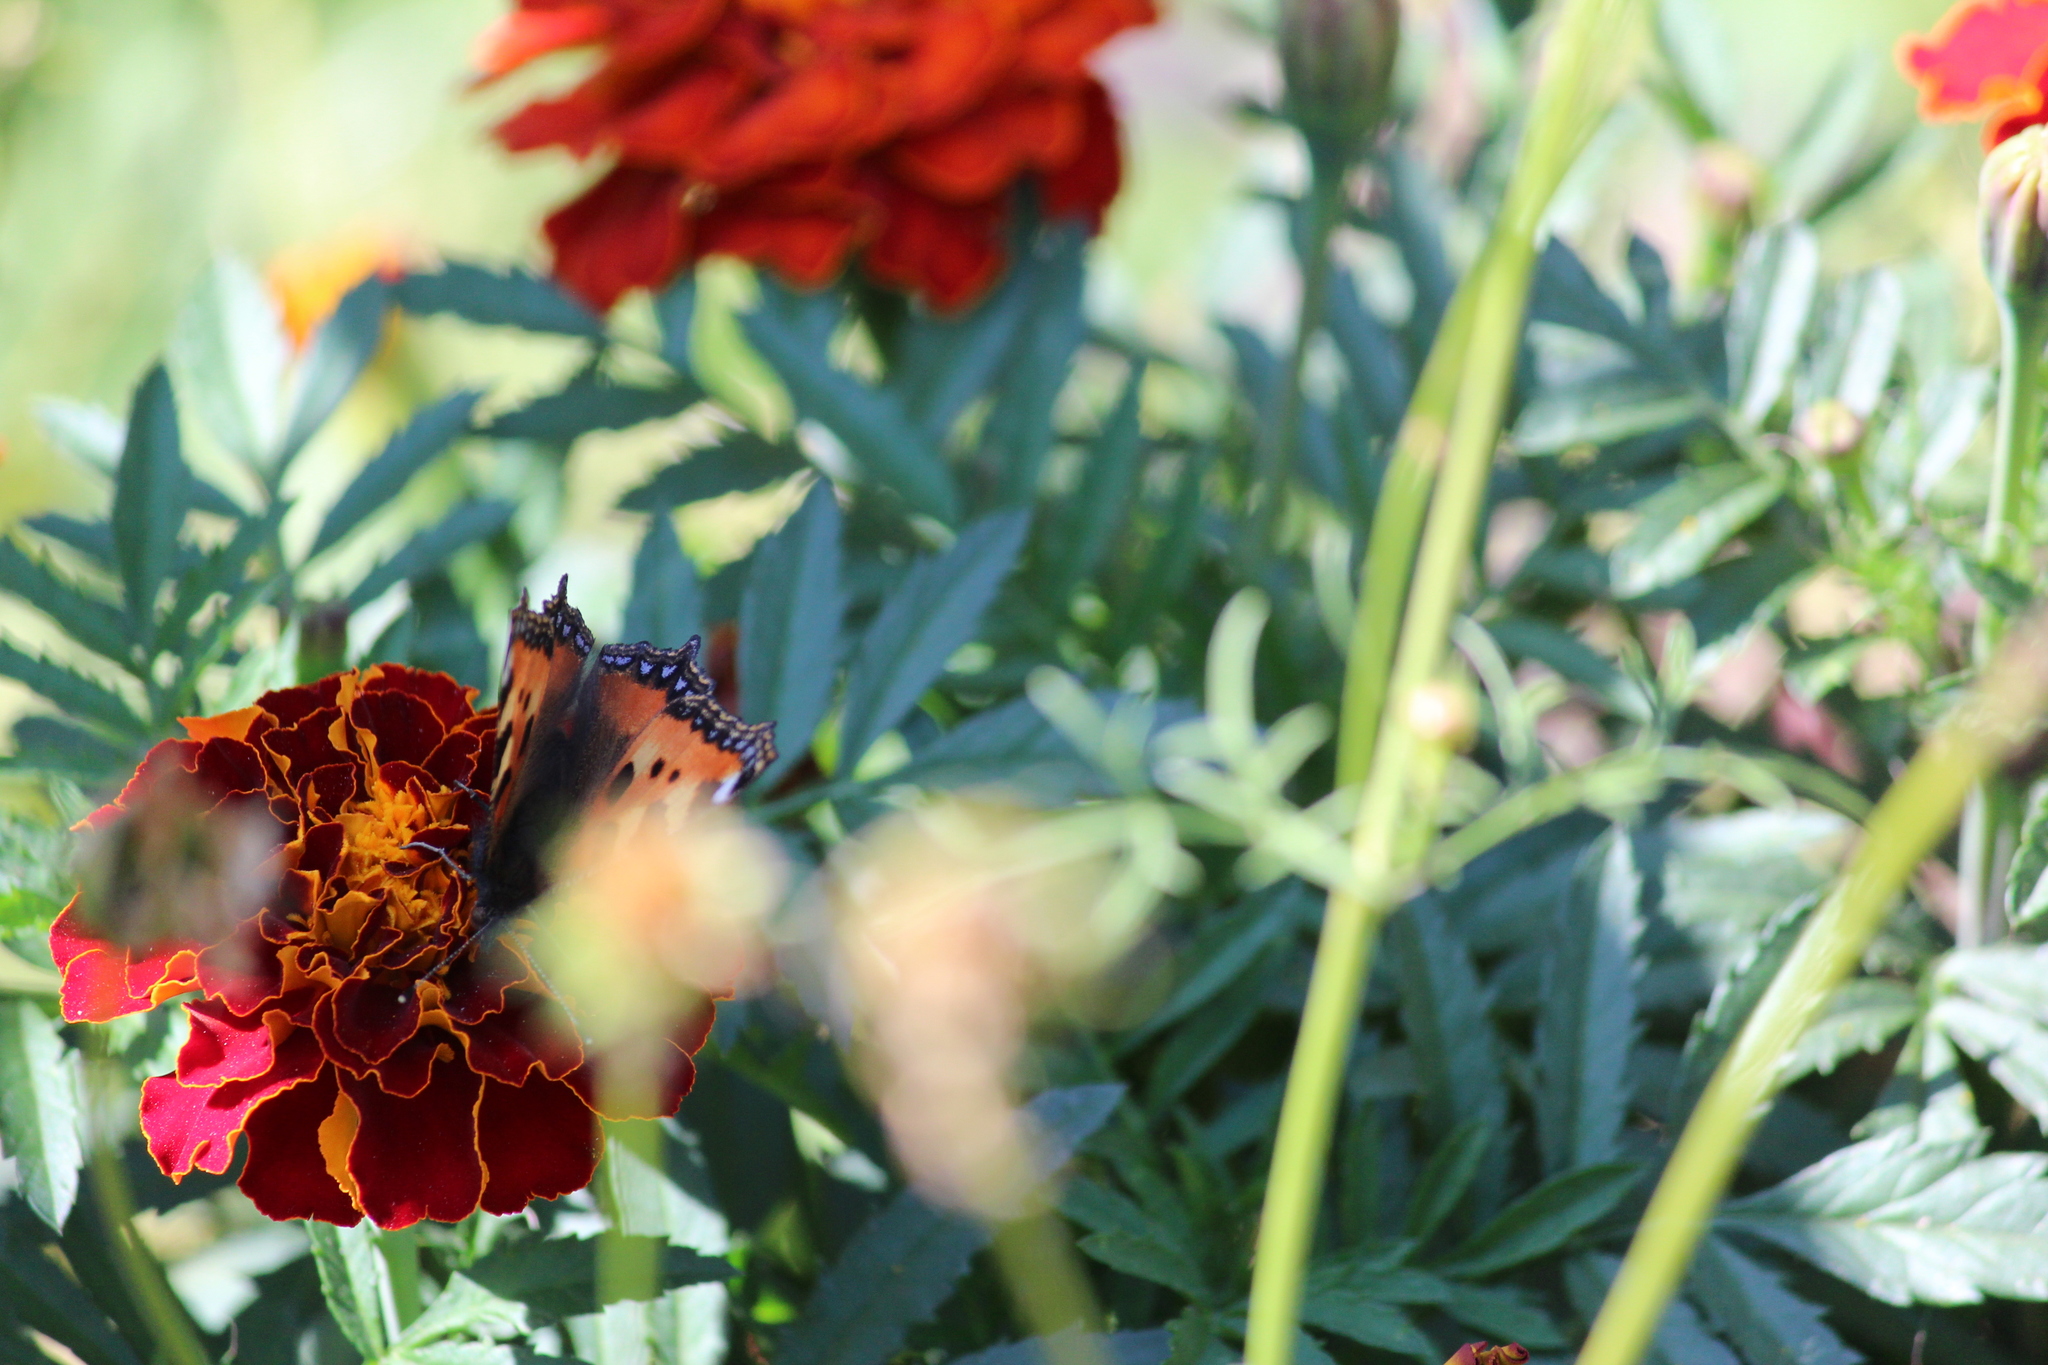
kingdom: Animalia
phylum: Arthropoda
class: Insecta
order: Lepidoptera
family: Nymphalidae
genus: Aglais
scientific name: Aglais urticae
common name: Small tortoiseshell
